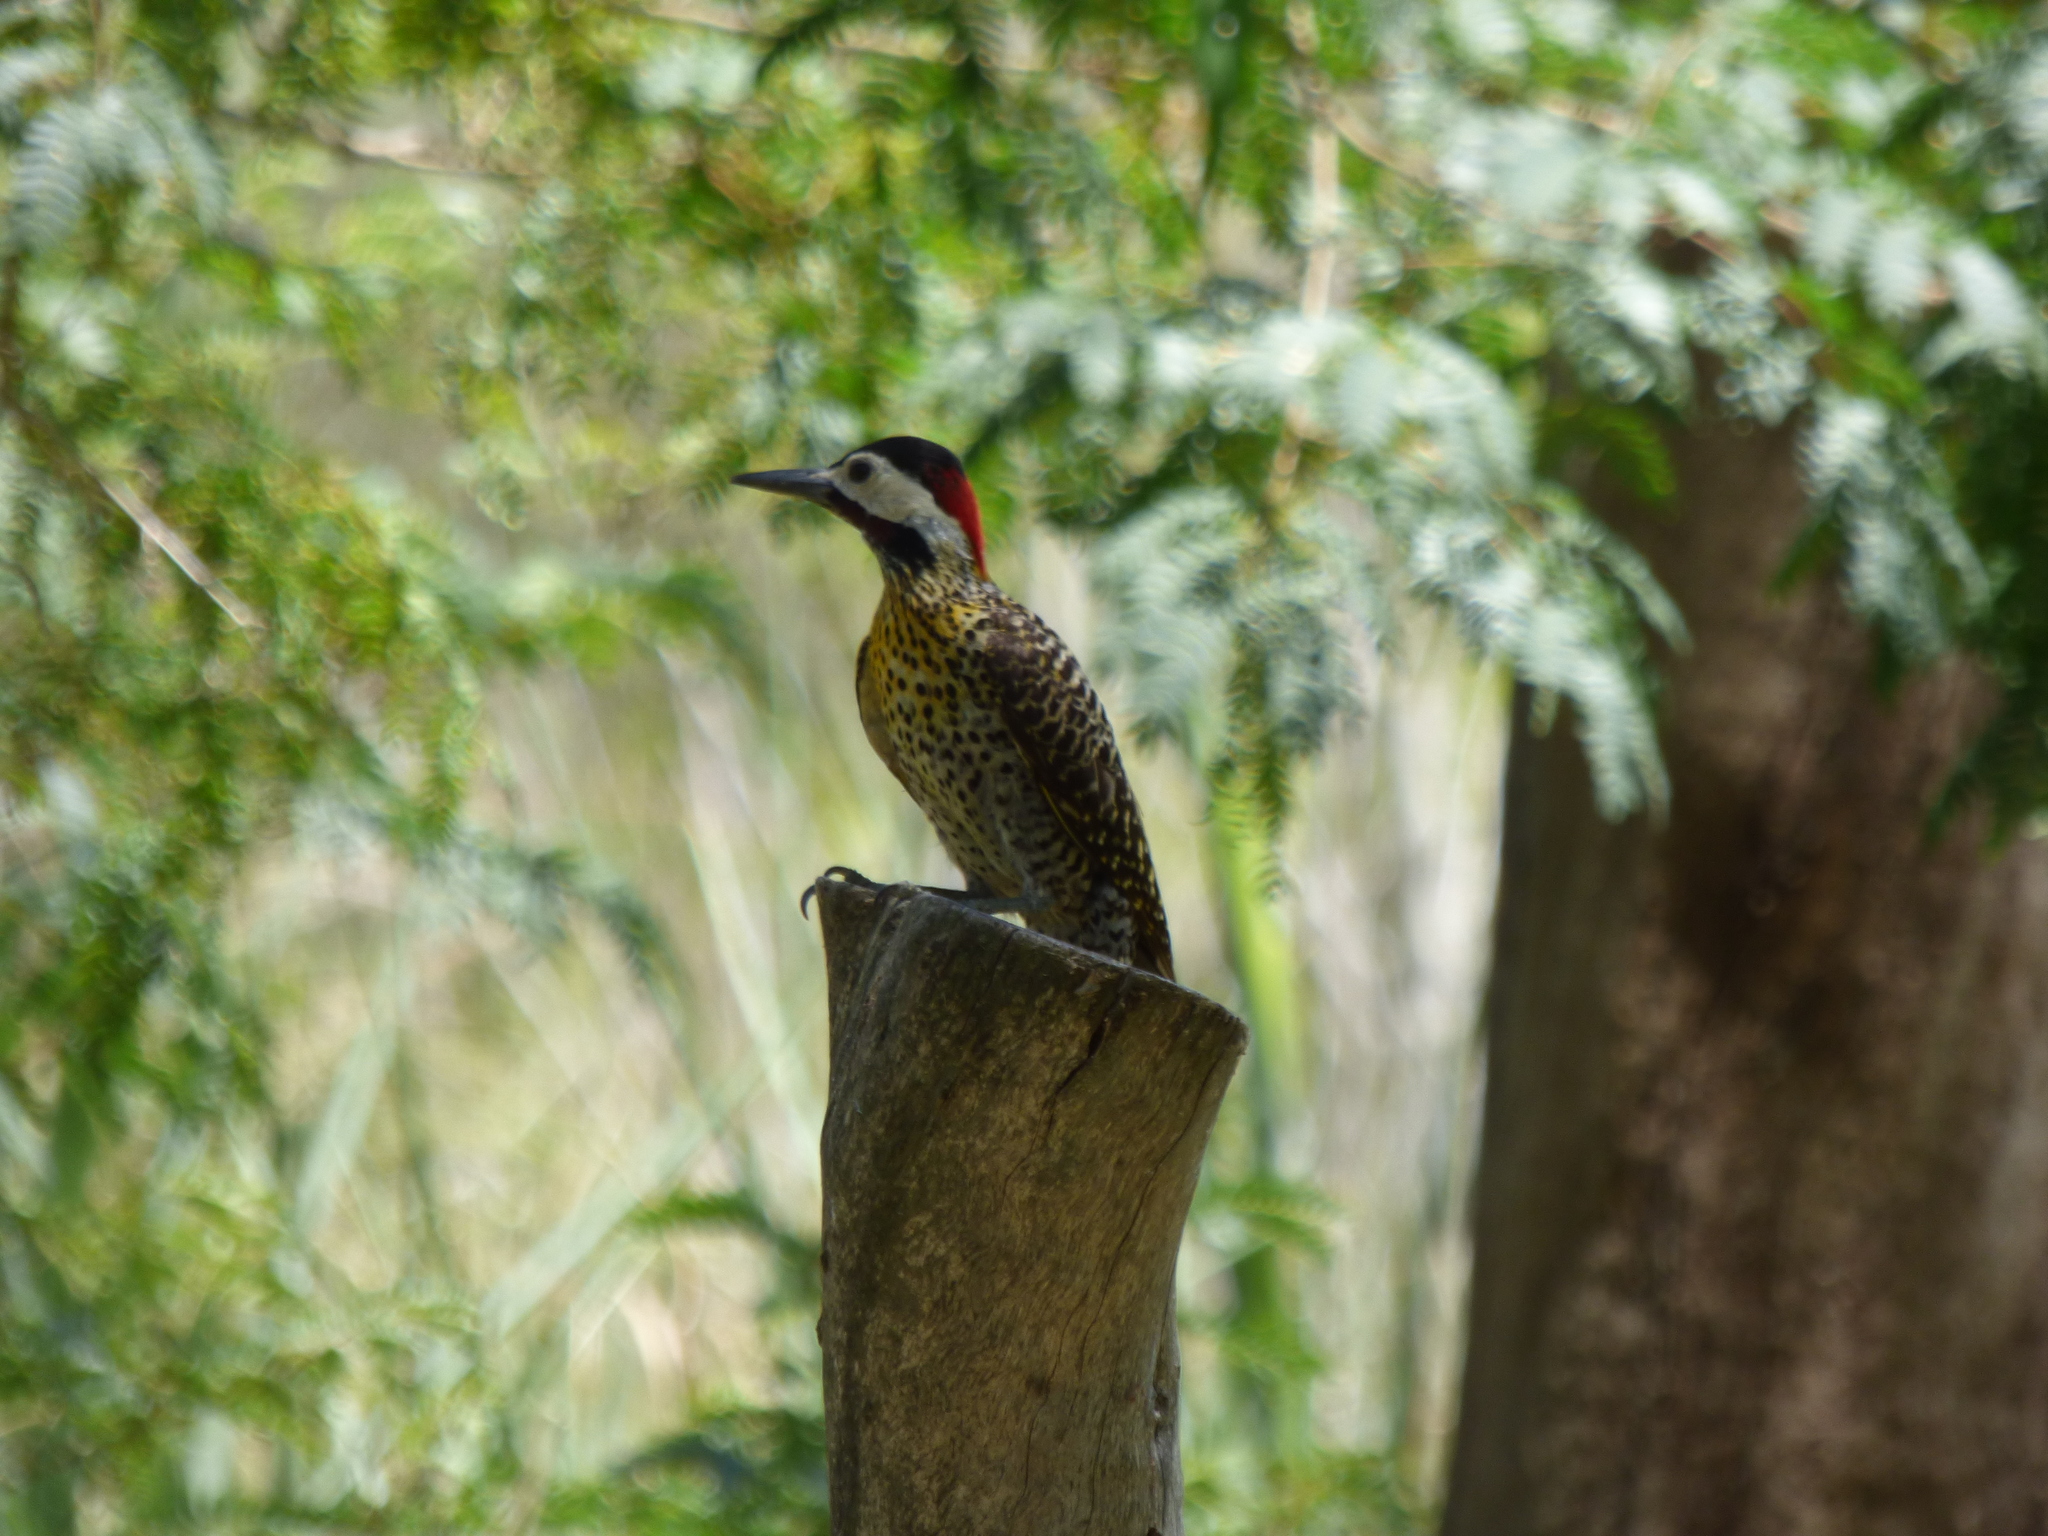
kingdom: Animalia
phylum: Chordata
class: Aves
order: Piciformes
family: Picidae
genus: Colaptes
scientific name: Colaptes melanochloros
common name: Green-barred woodpecker
